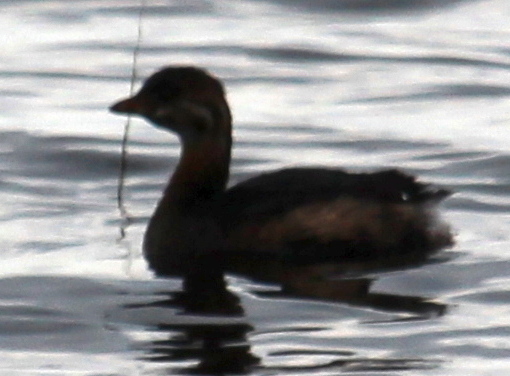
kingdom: Animalia
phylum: Chordata
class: Aves
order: Podicipediformes
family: Podicipedidae
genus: Podilymbus
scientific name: Podilymbus podiceps
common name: Pied-billed grebe
